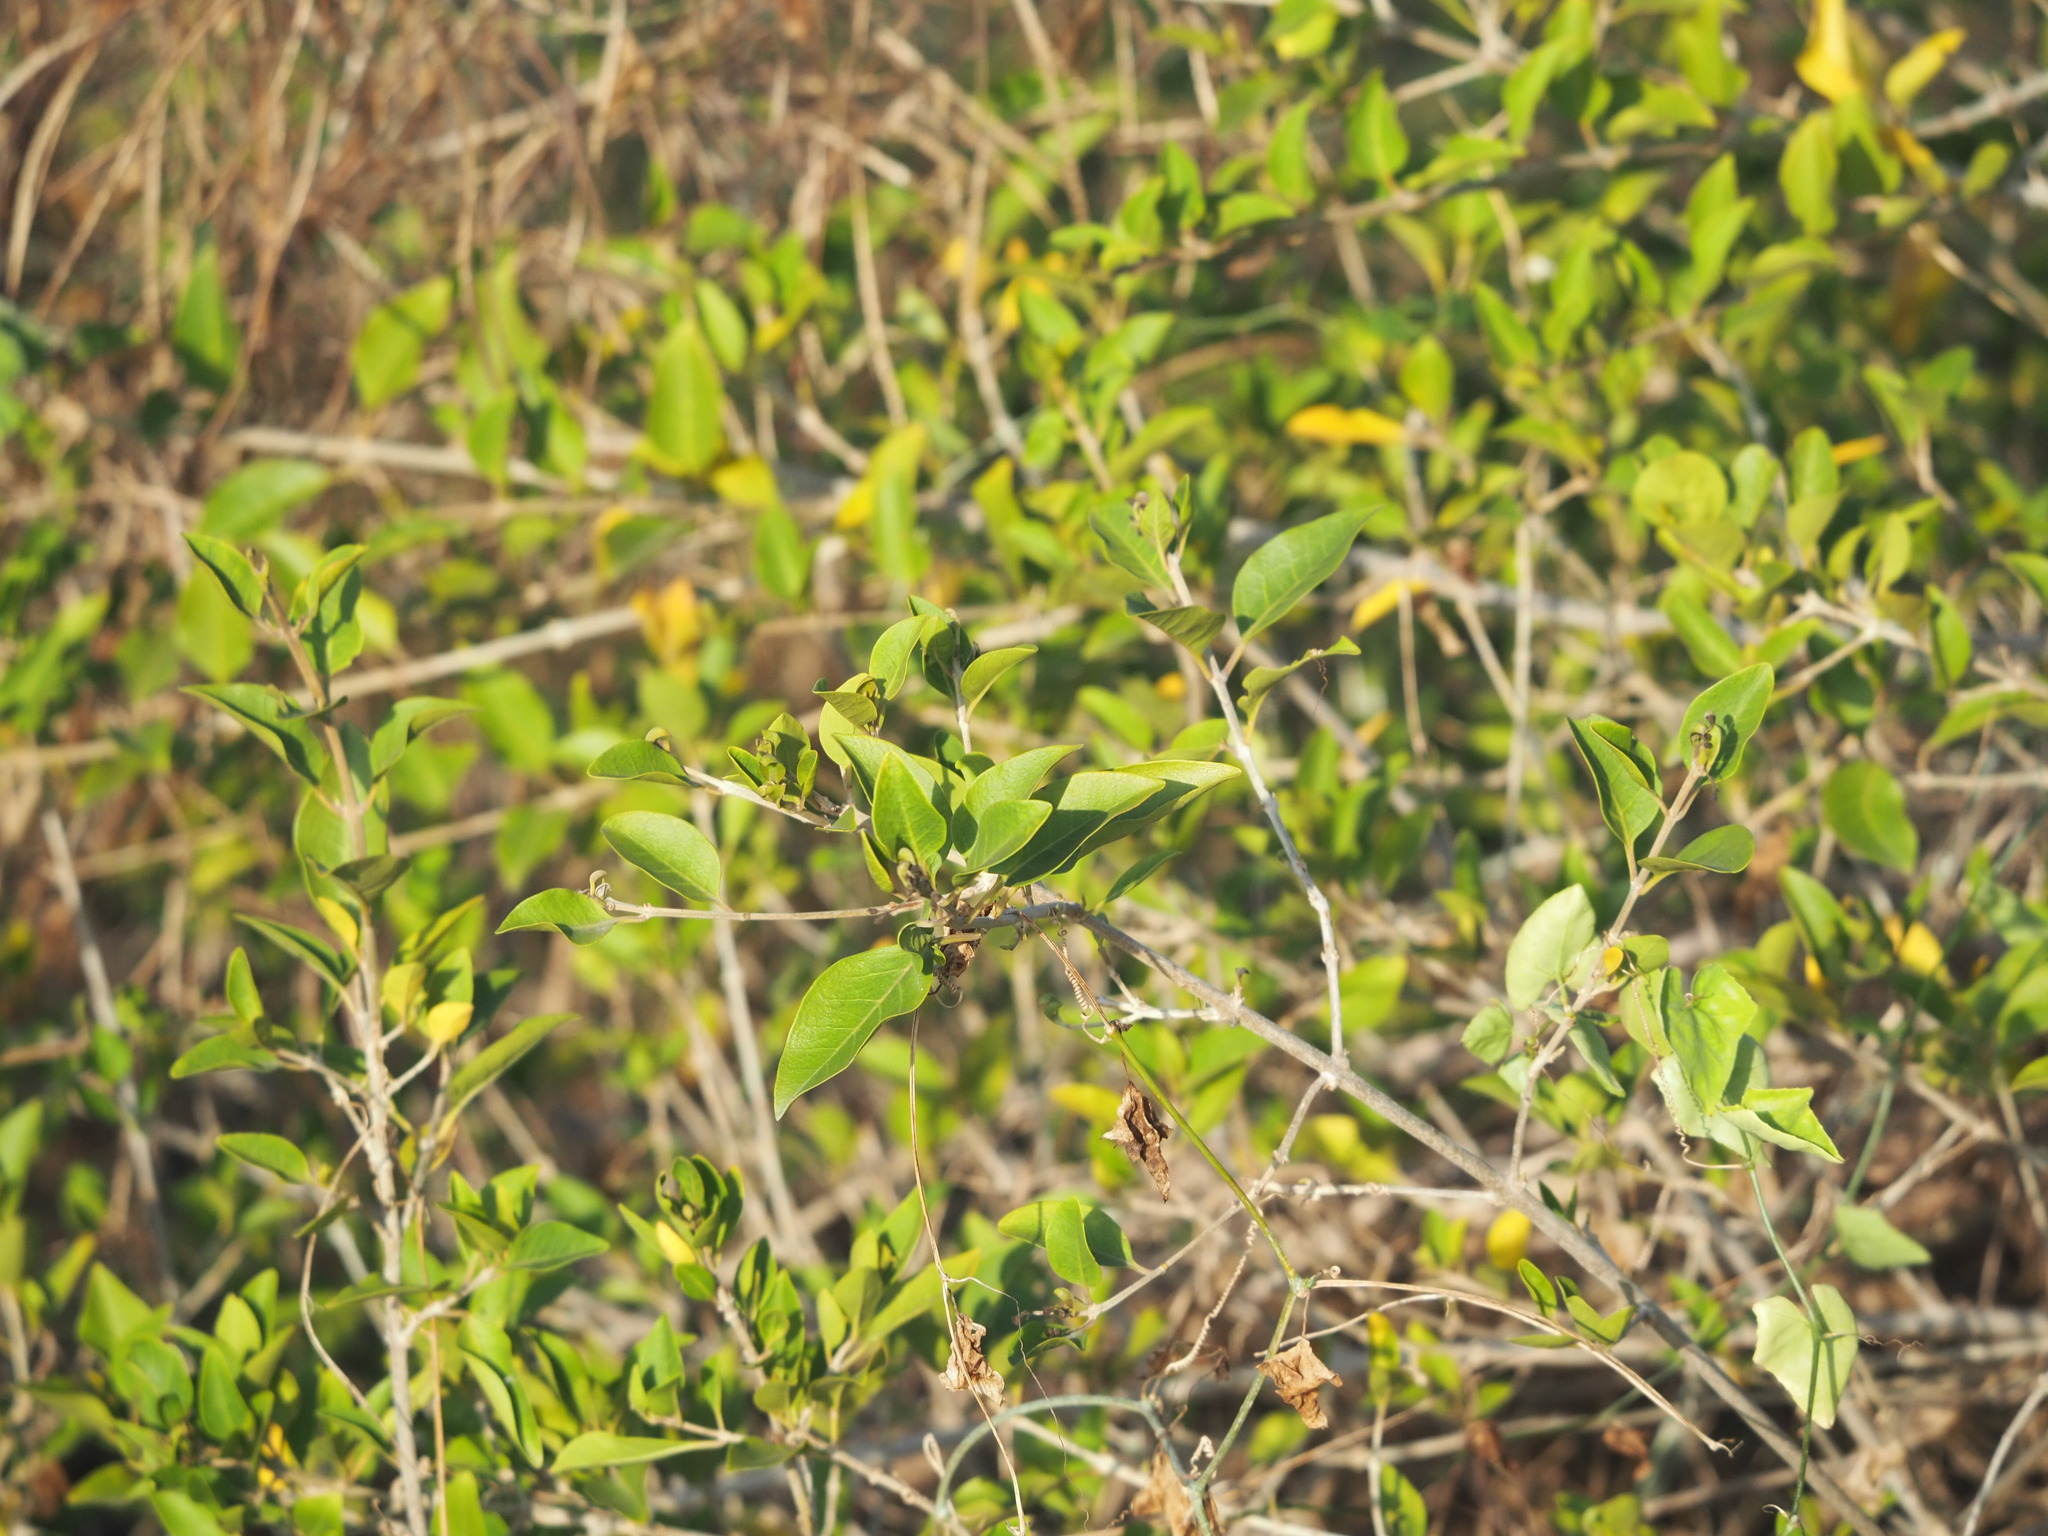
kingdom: Plantae
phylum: Tracheophyta
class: Magnoliopsida
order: Lamiales
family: Lamiaceae
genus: Volkameria
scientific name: Volkameria inermis
